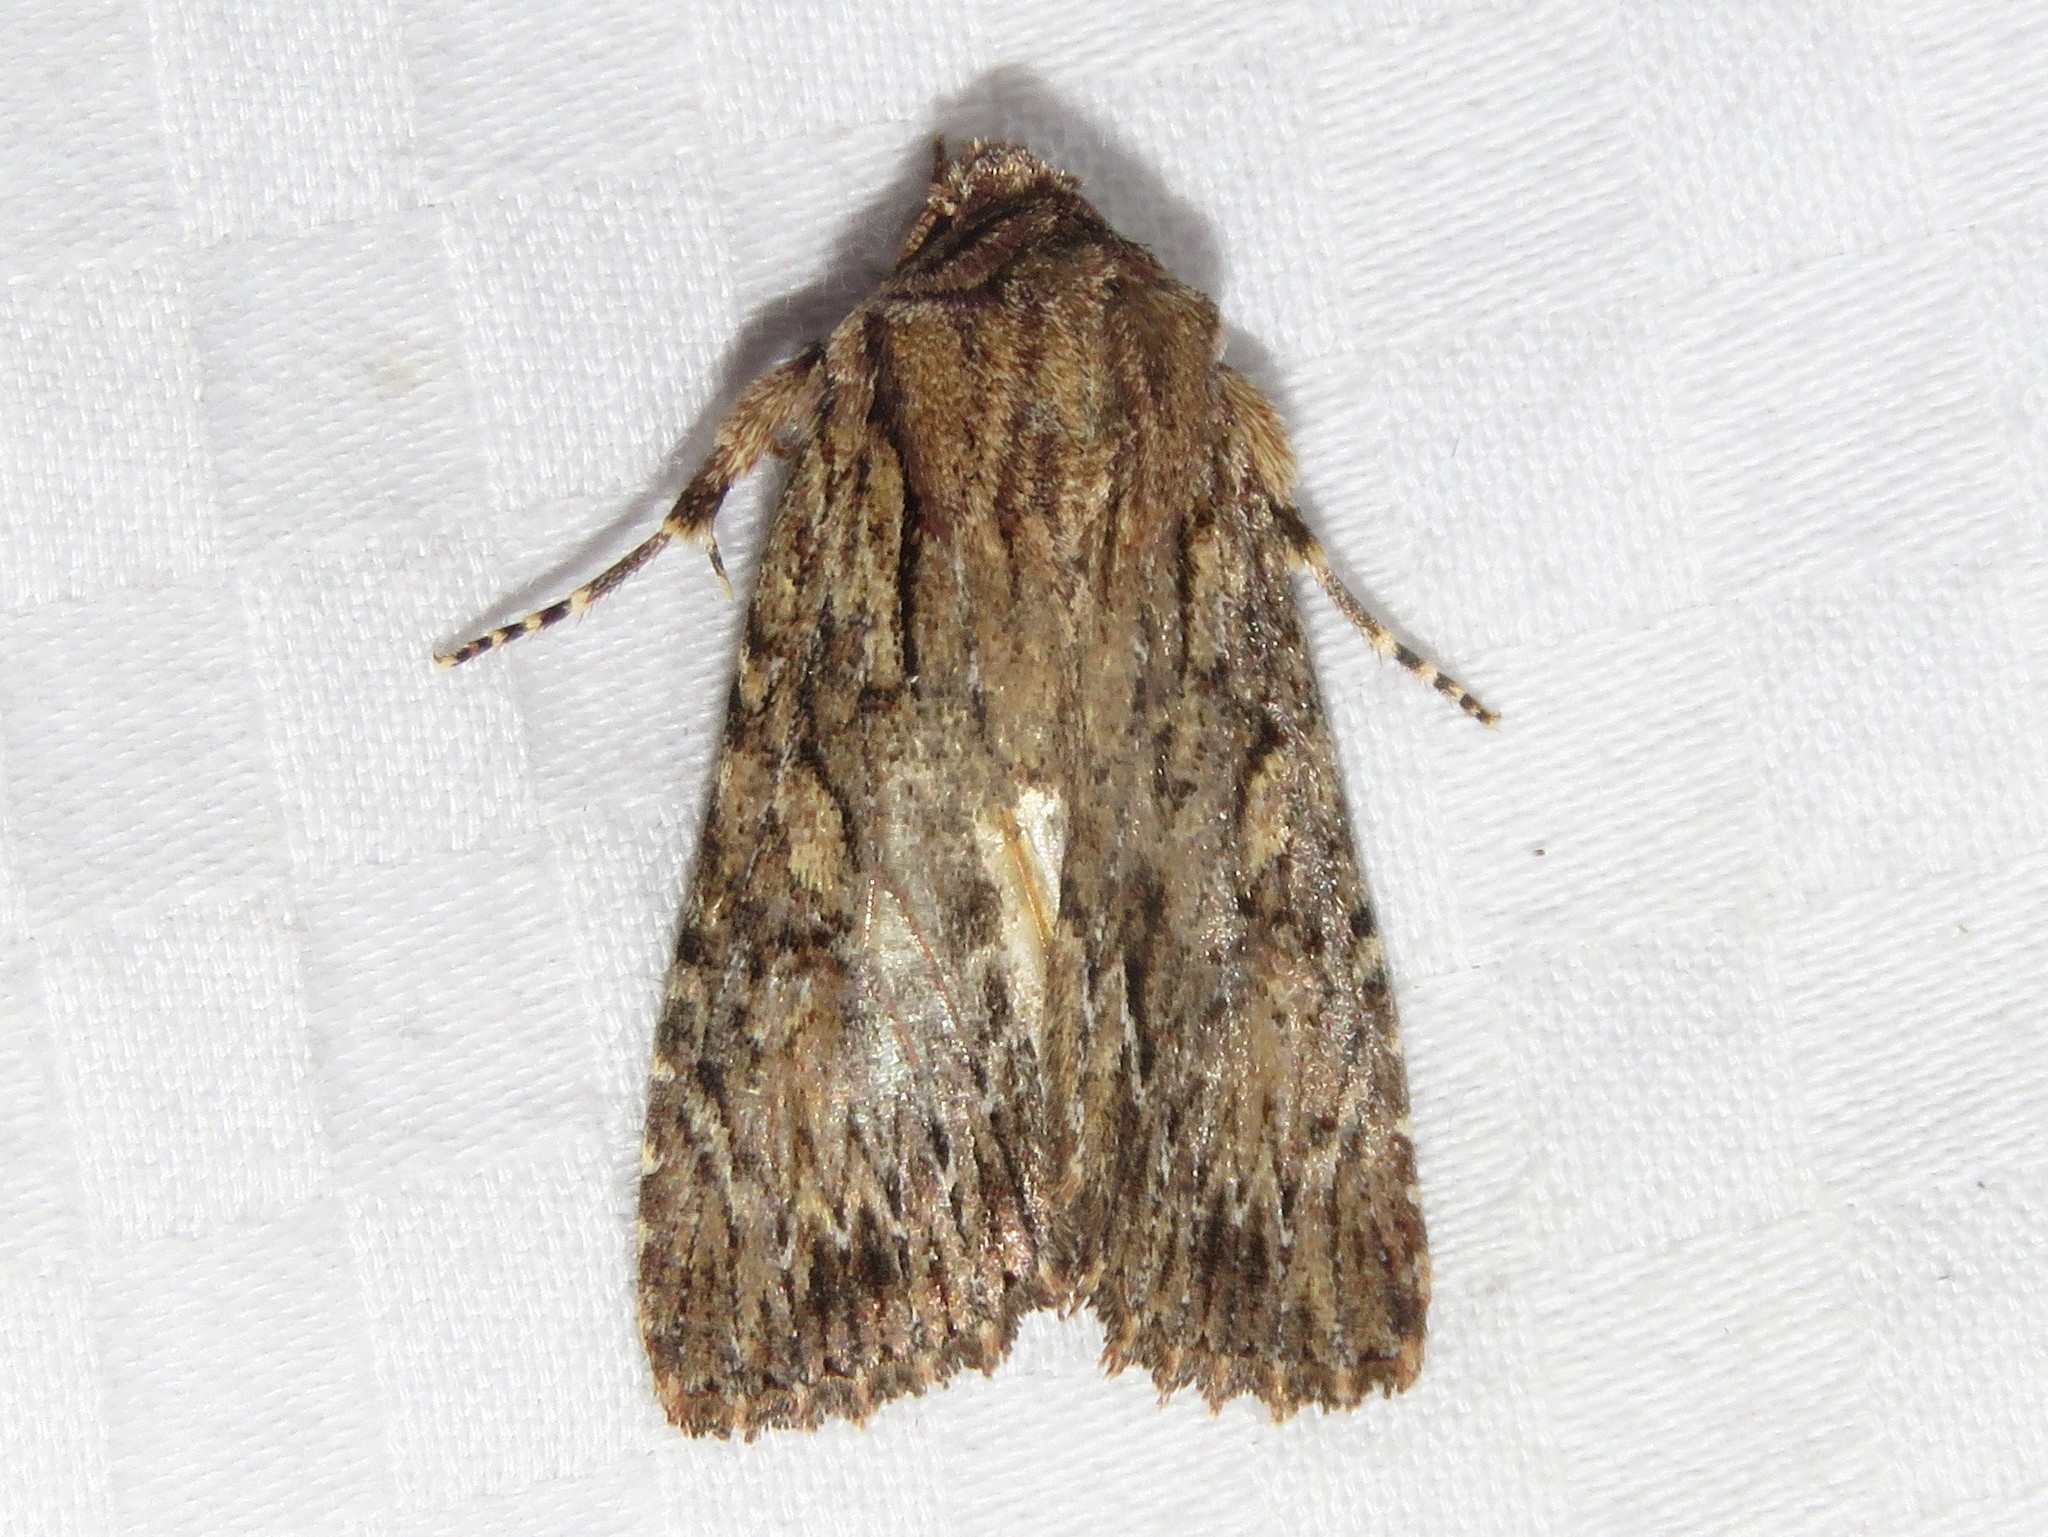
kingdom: Animalia
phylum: Arthropoda
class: Insecta
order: Lepidoptera
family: Noctuidae
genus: Achatia
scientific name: Achatia confusa
